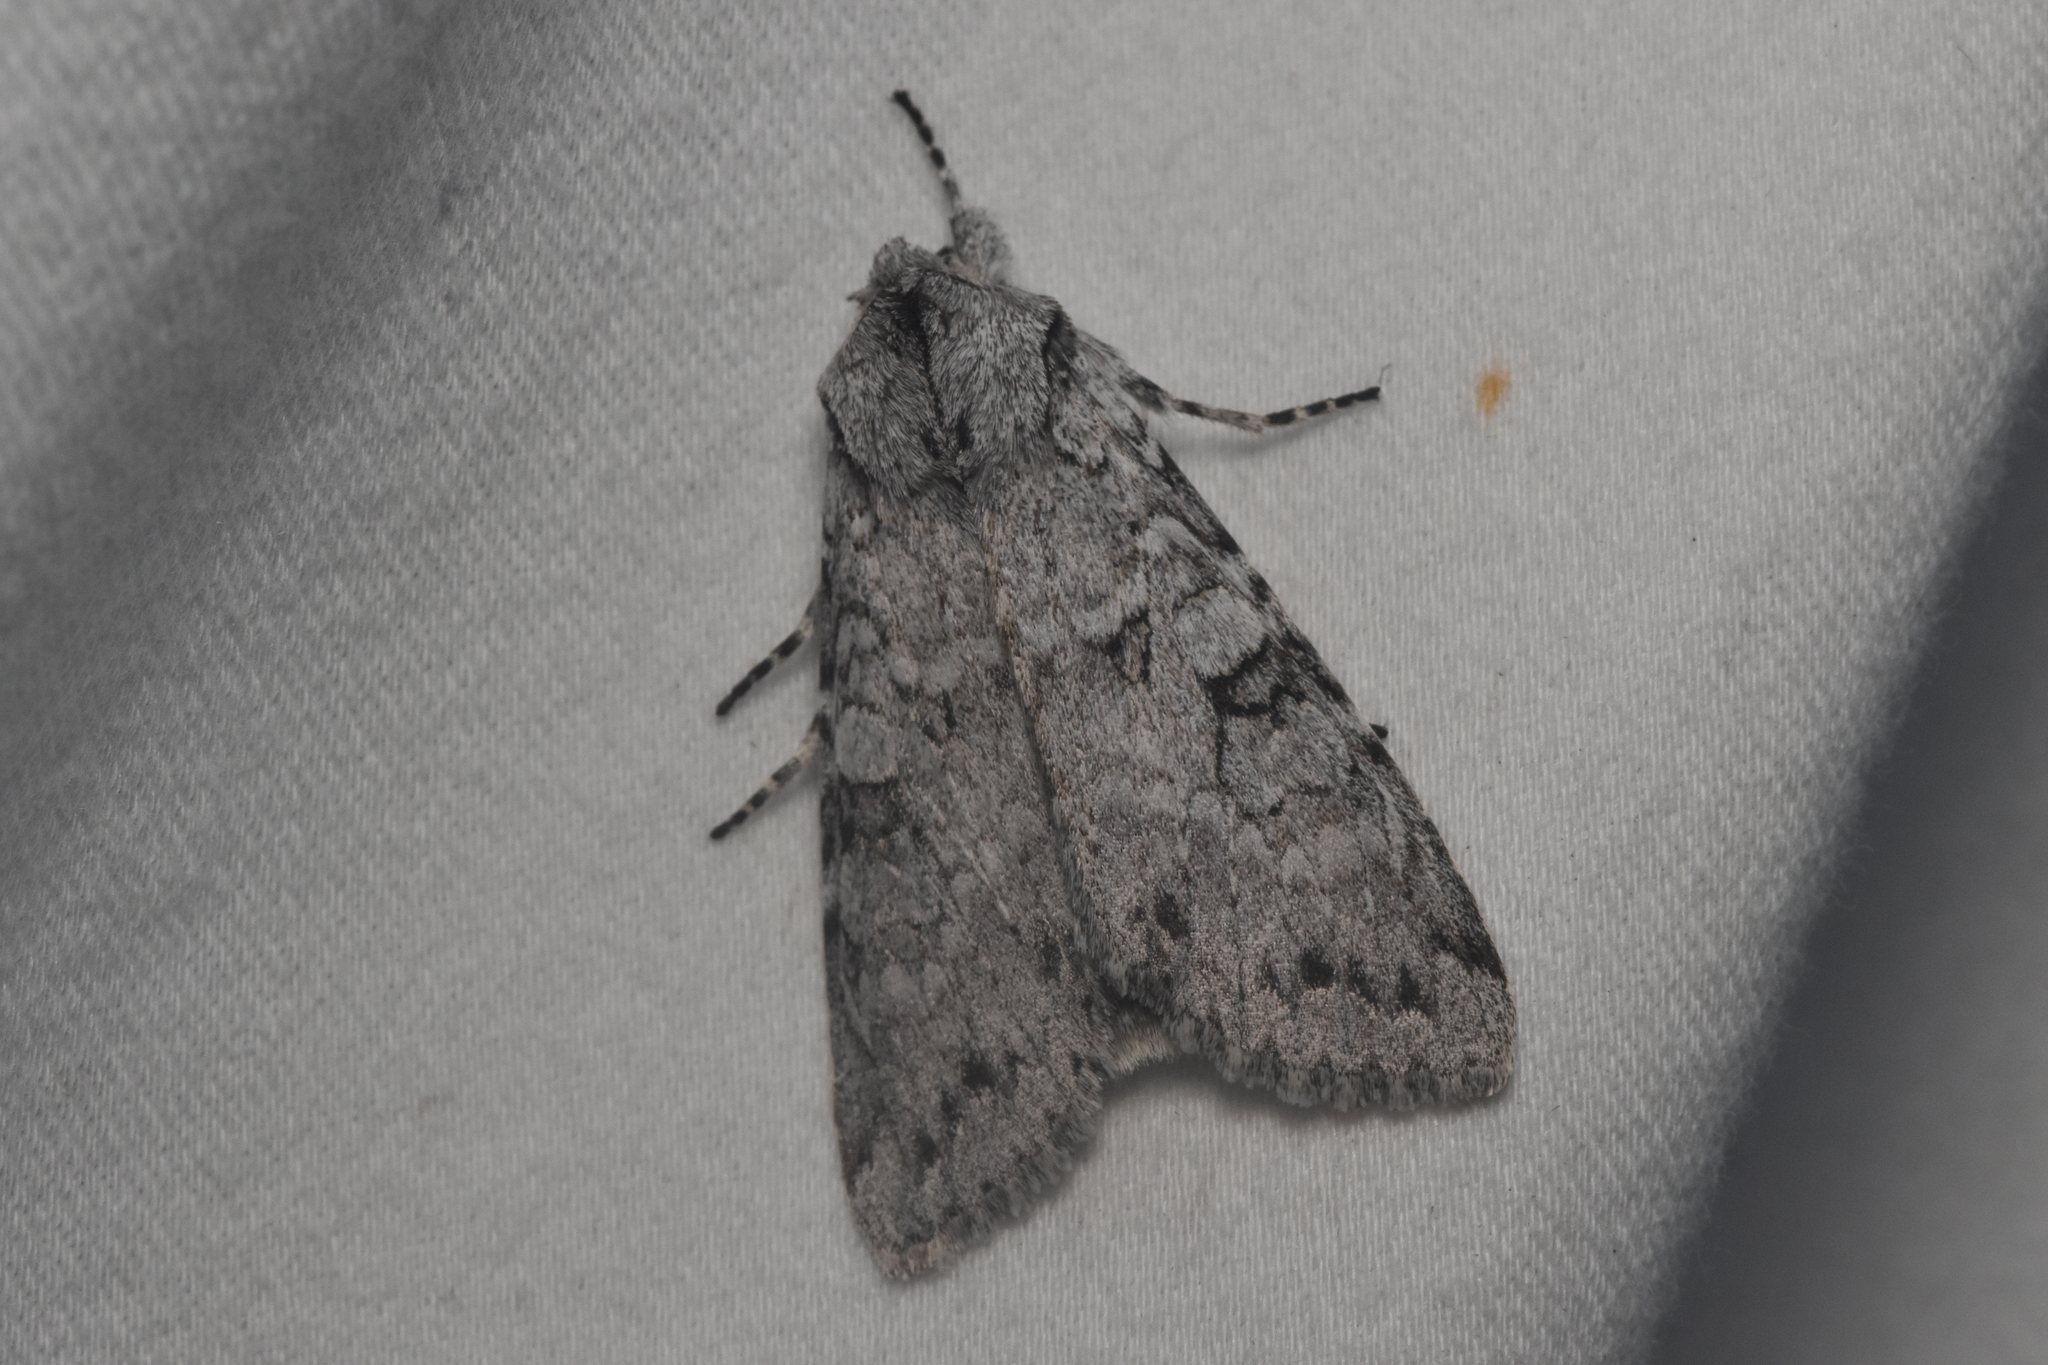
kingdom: Animalia
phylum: Arthropoda
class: Insecta
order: Lepidoptera
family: Noctuidae
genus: Polia
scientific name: Polia nimbosa
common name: Stormy arches
